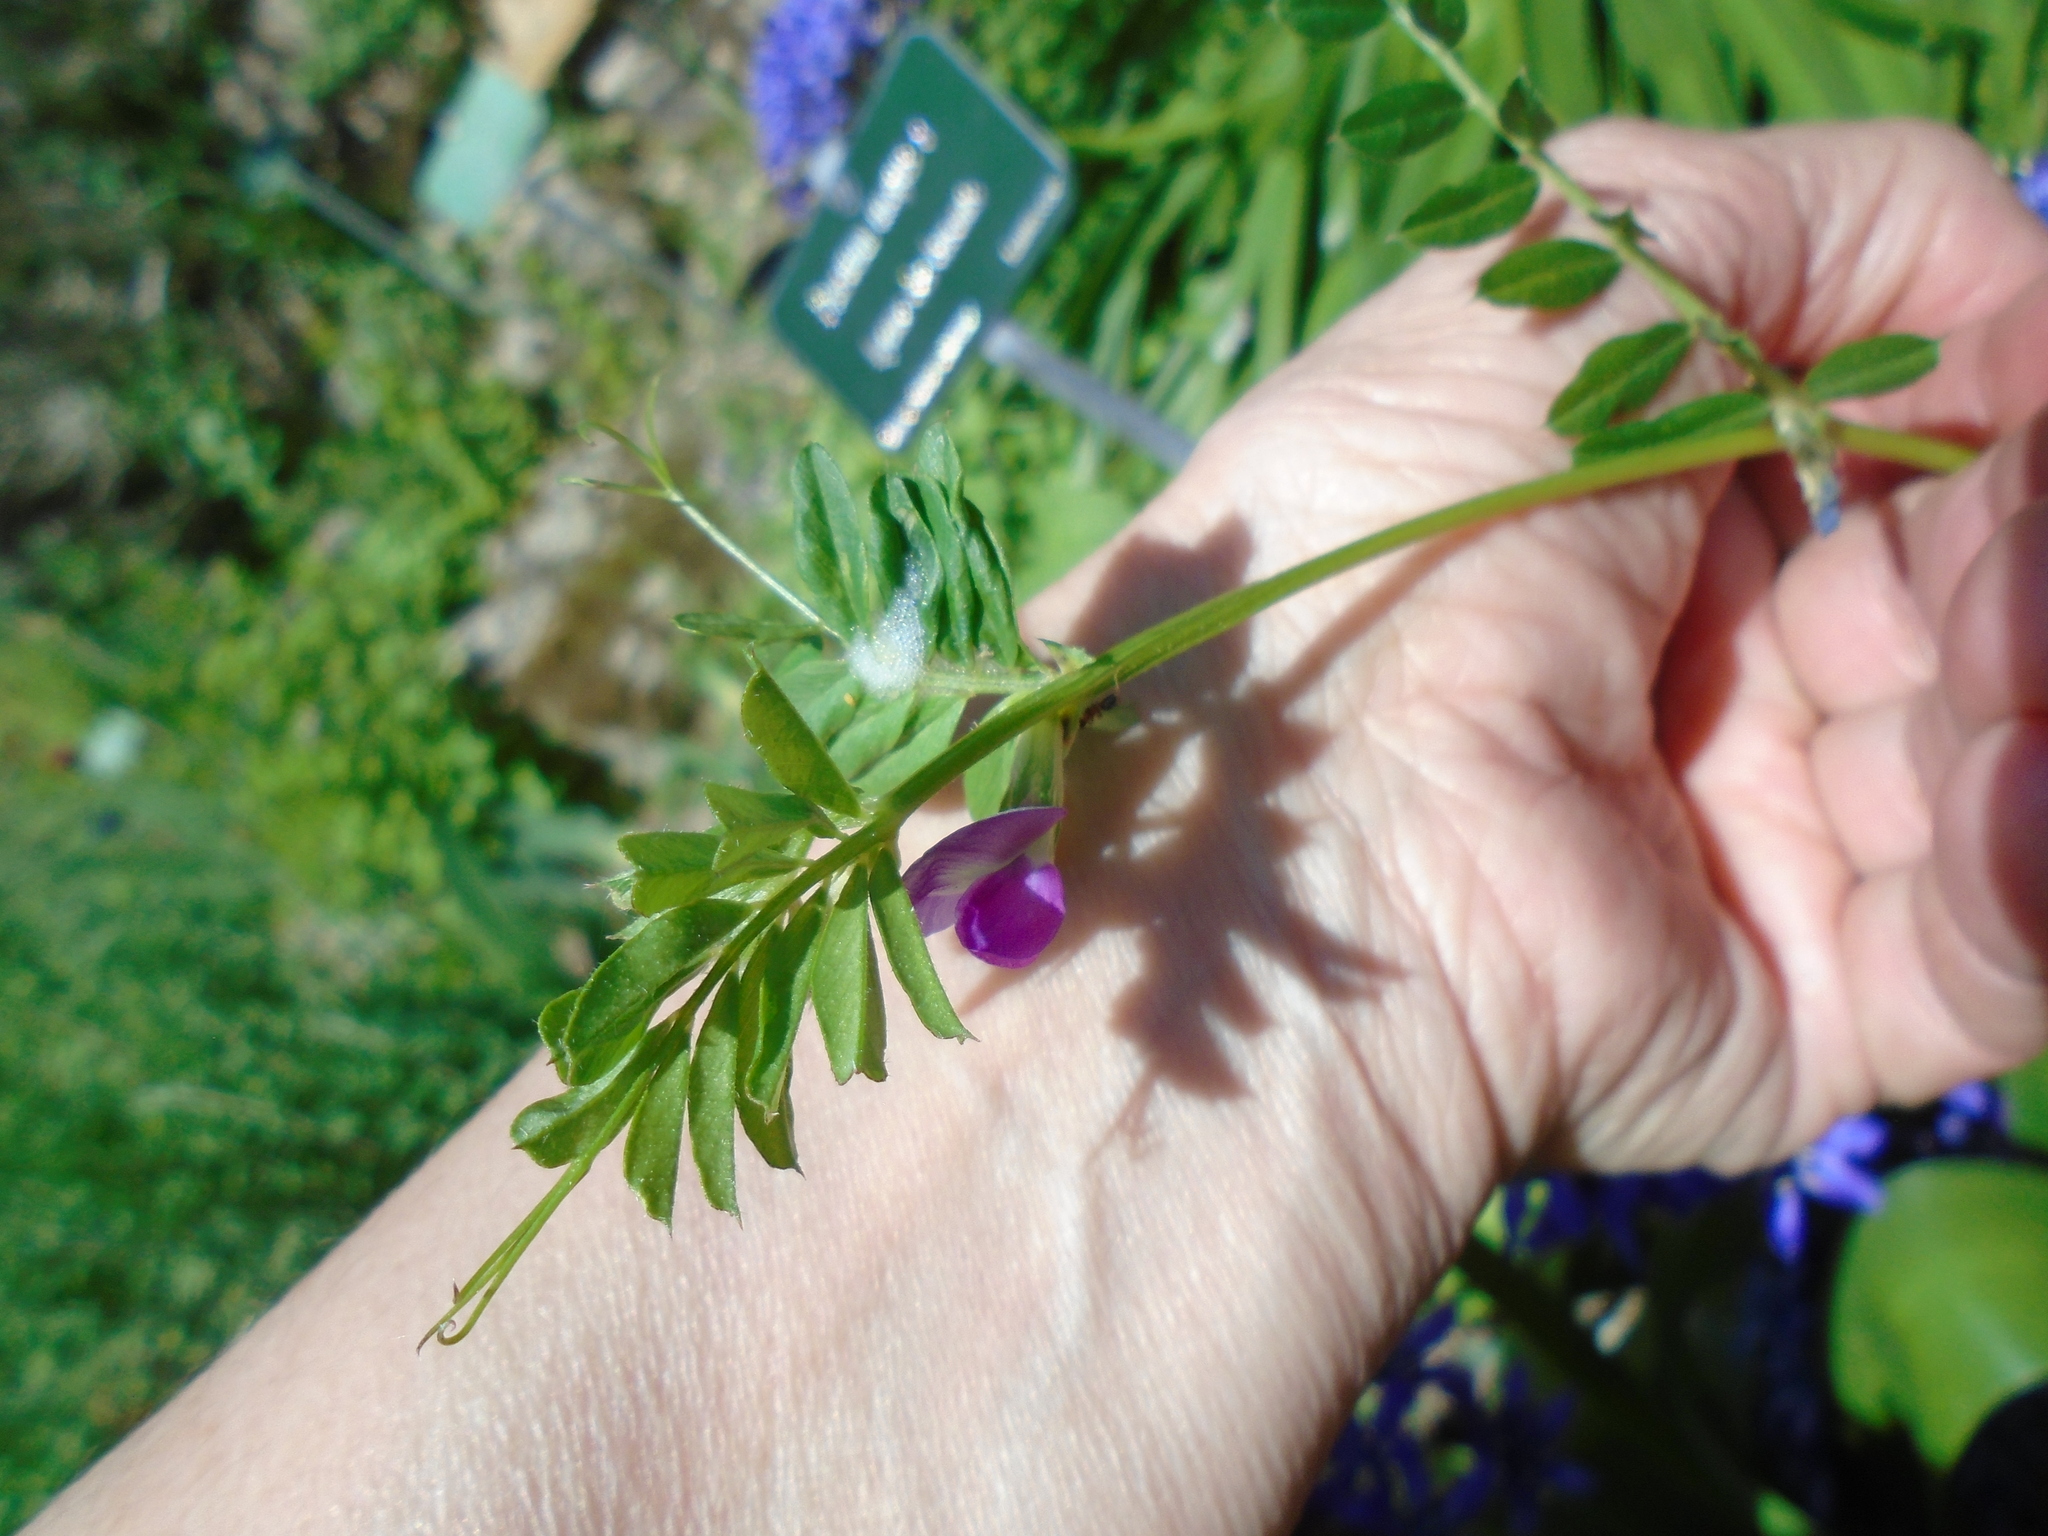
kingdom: Plantae
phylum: Tracheophyta
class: Magnoliopsida
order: Fabales
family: Fabaceae
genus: Vicia
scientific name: Vicia sativa
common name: Garden vetch
